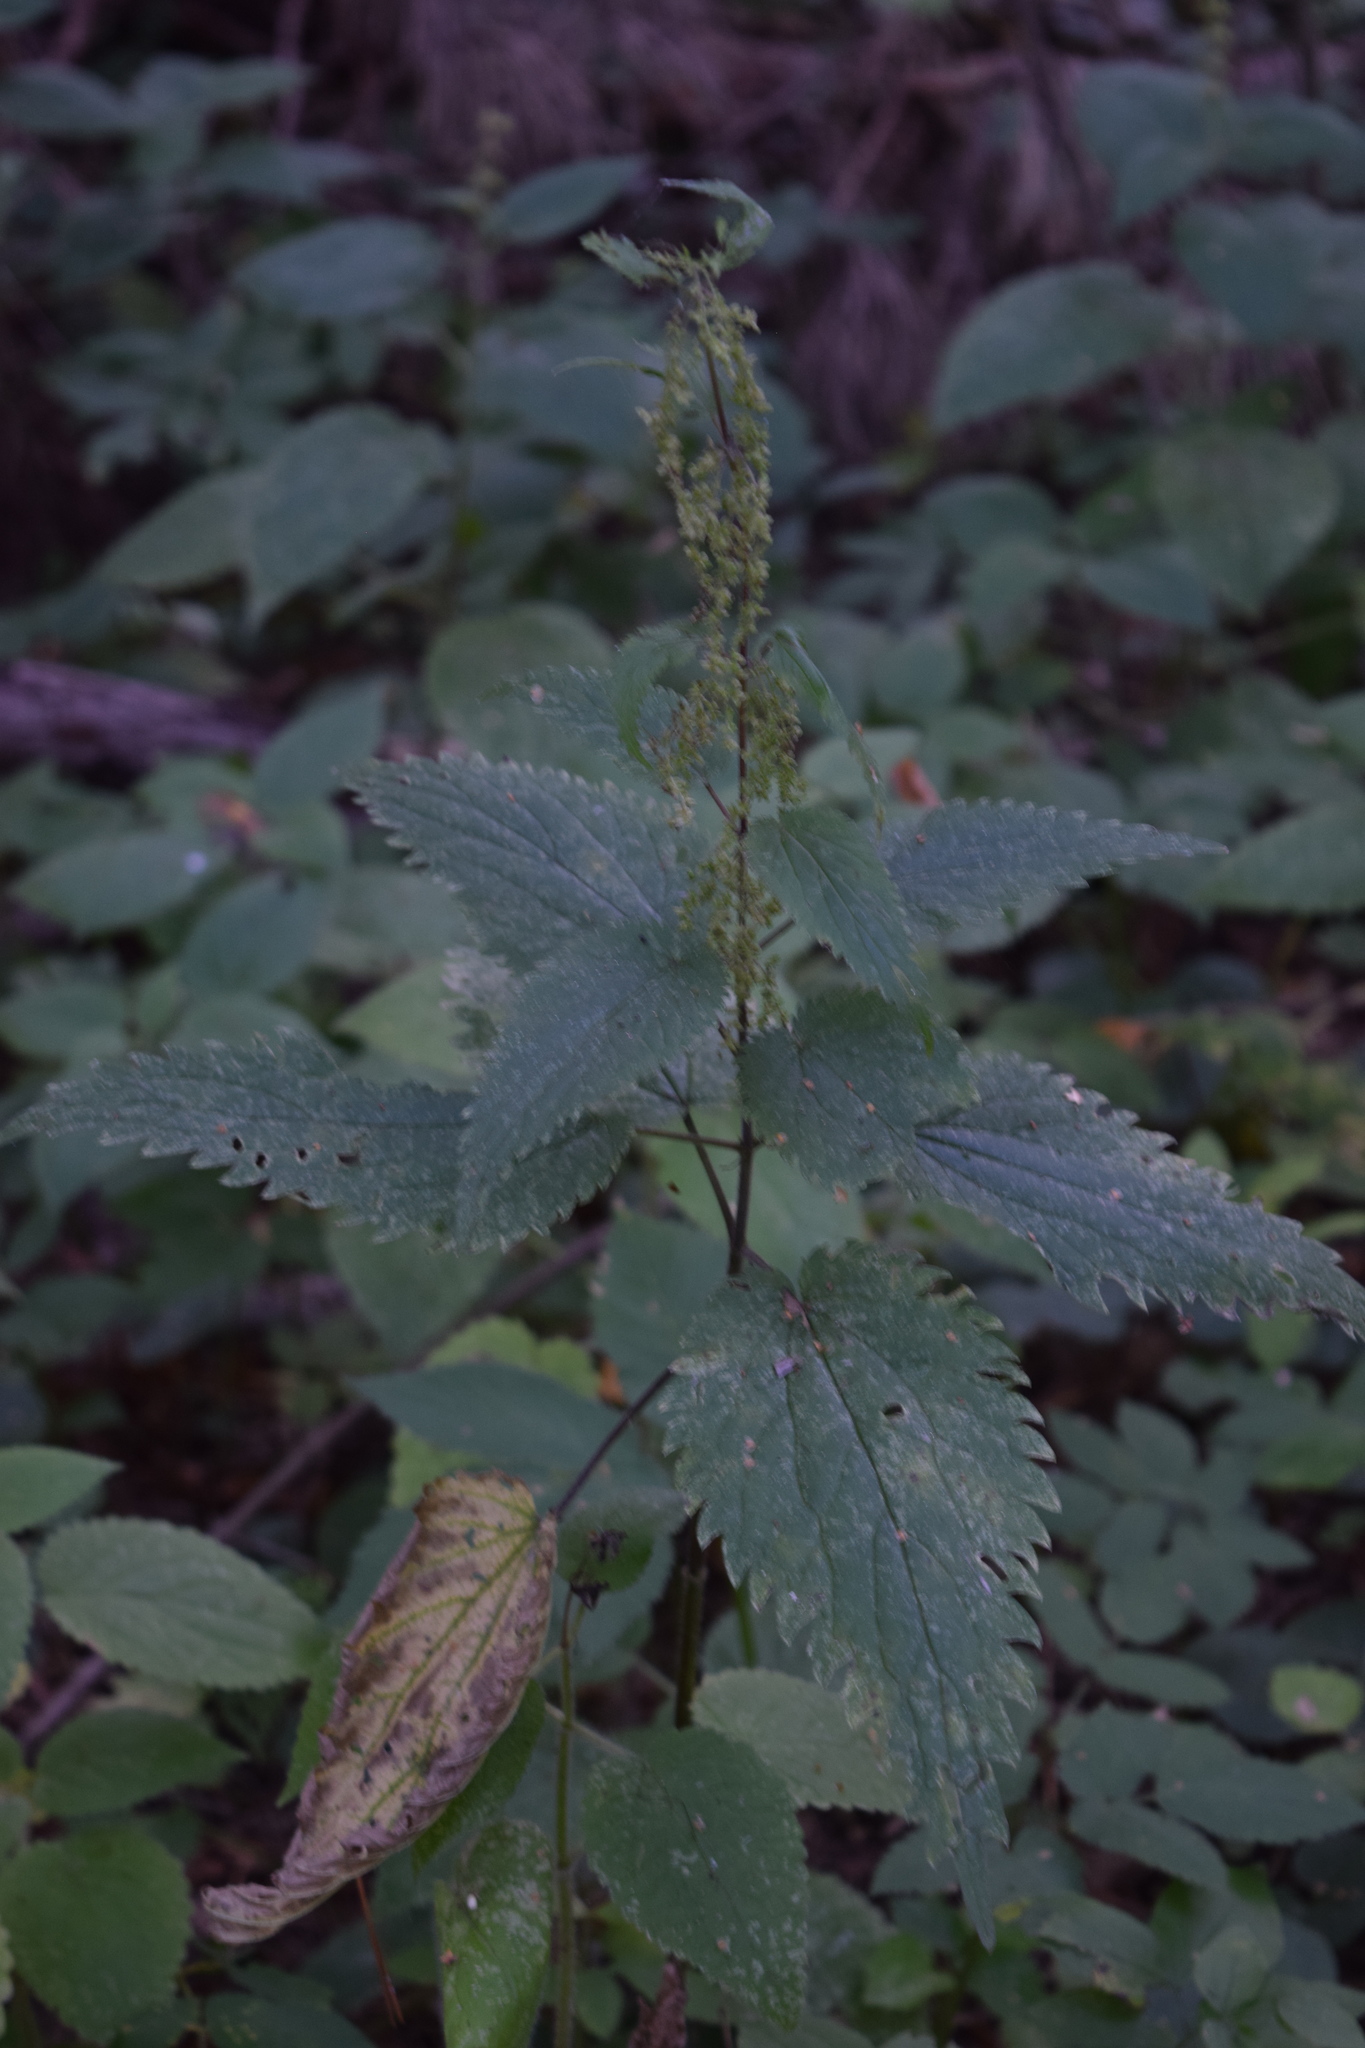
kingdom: Plantae
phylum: Tracheophyta
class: Magnoliopsida
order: Rosales
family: Urticaceae
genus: Urtica
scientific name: Urtica dioica
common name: Common nettle
